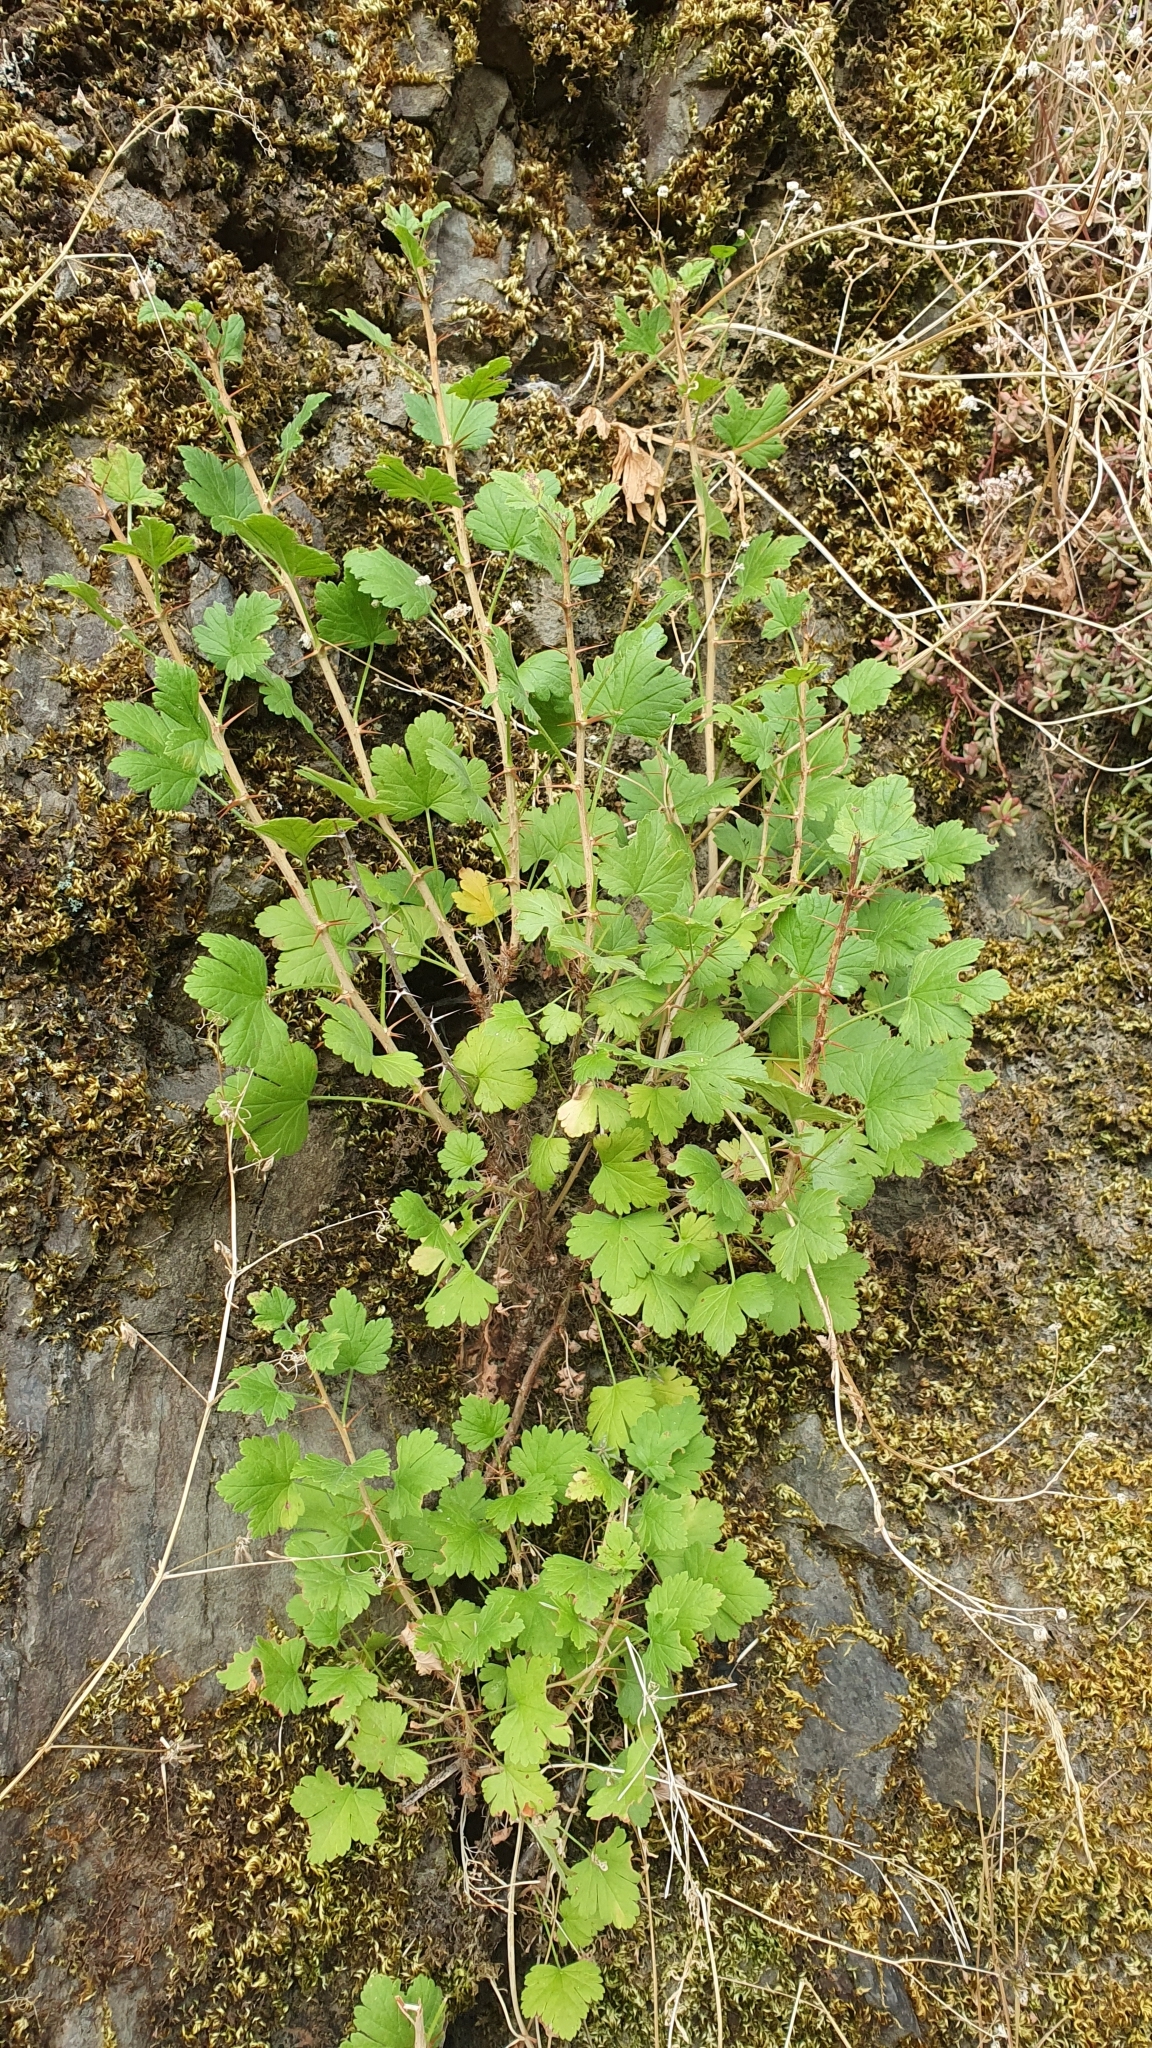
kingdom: Plantae
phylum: Tracheophyta
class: Magnoliopsida
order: Saxifragales
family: Grossulariaceae
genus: Ribes
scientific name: Ribes uva-crispa
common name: Gooseberry
